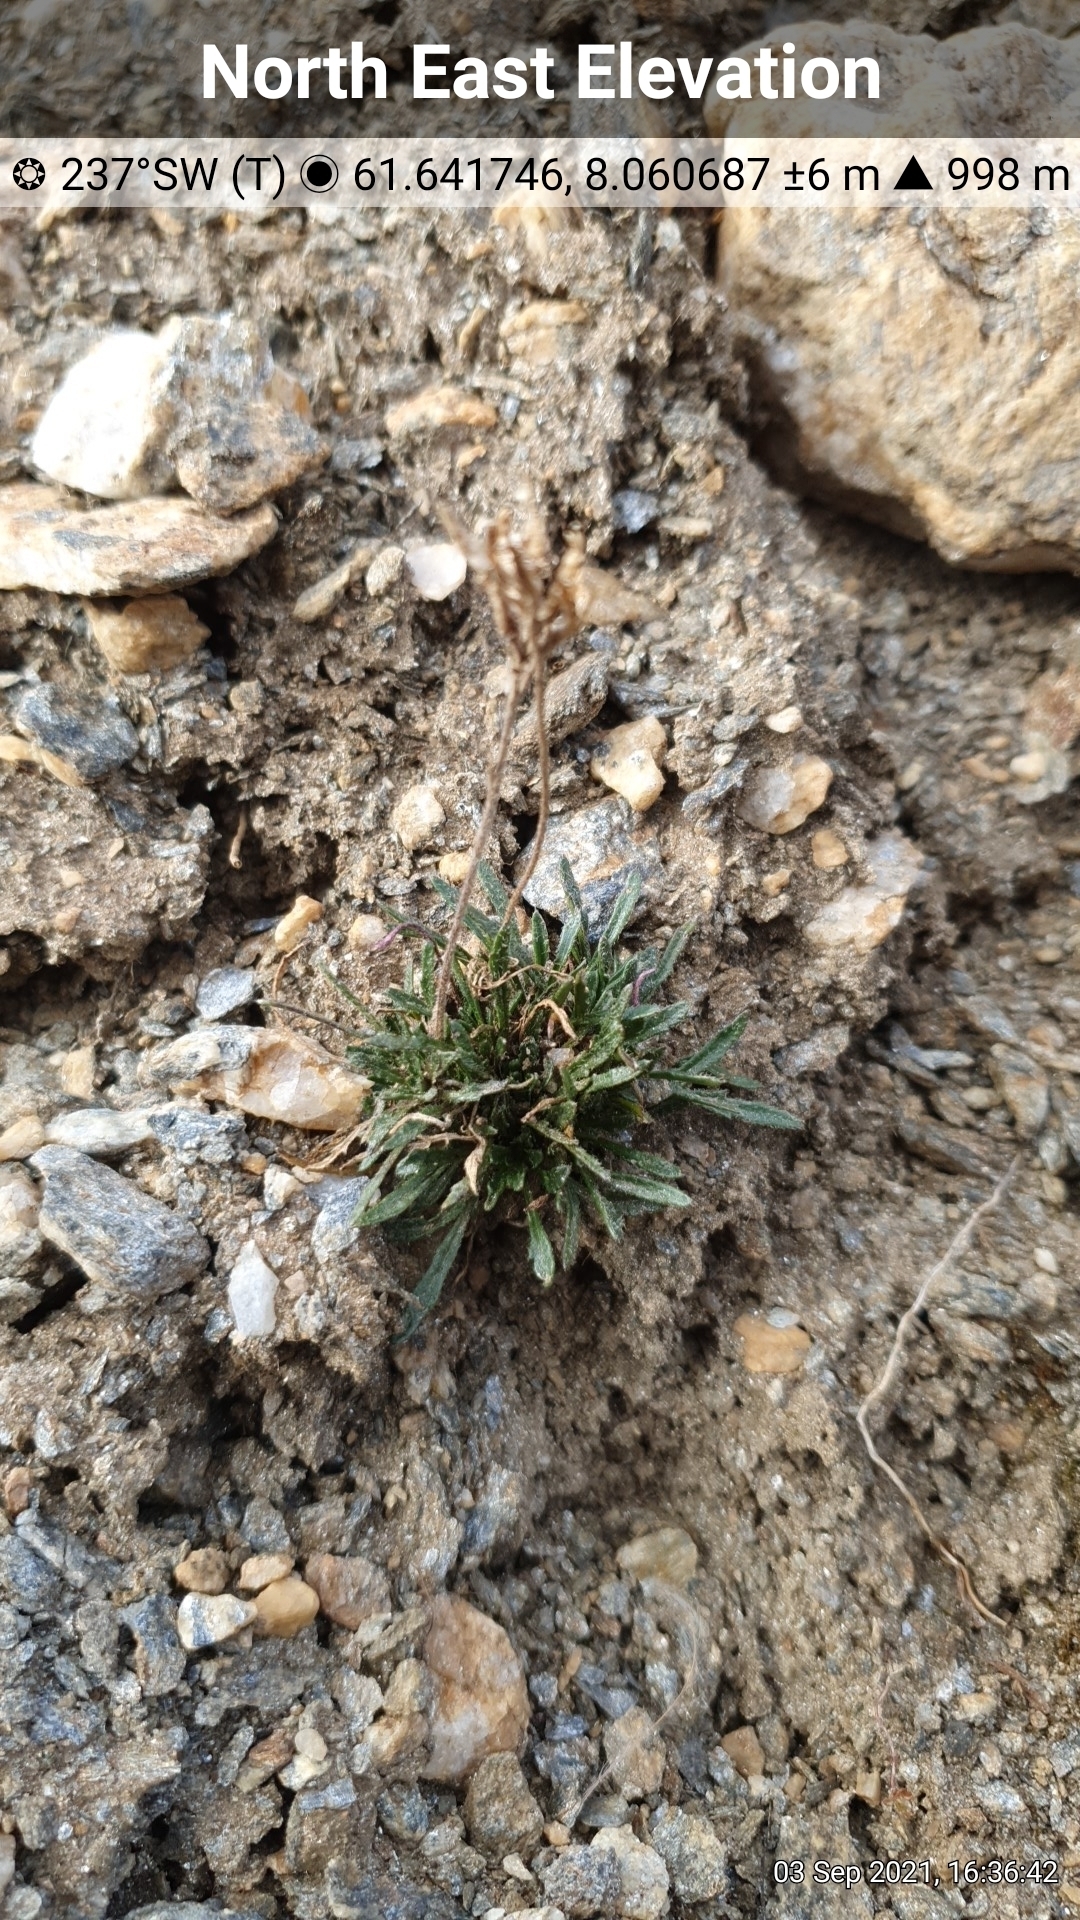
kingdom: Plantae
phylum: Tracheophyta
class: Magnoliopsida
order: Brassicales
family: Brassicaceae
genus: Braya
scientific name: Braya linearis
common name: Narrow-fruit braya
